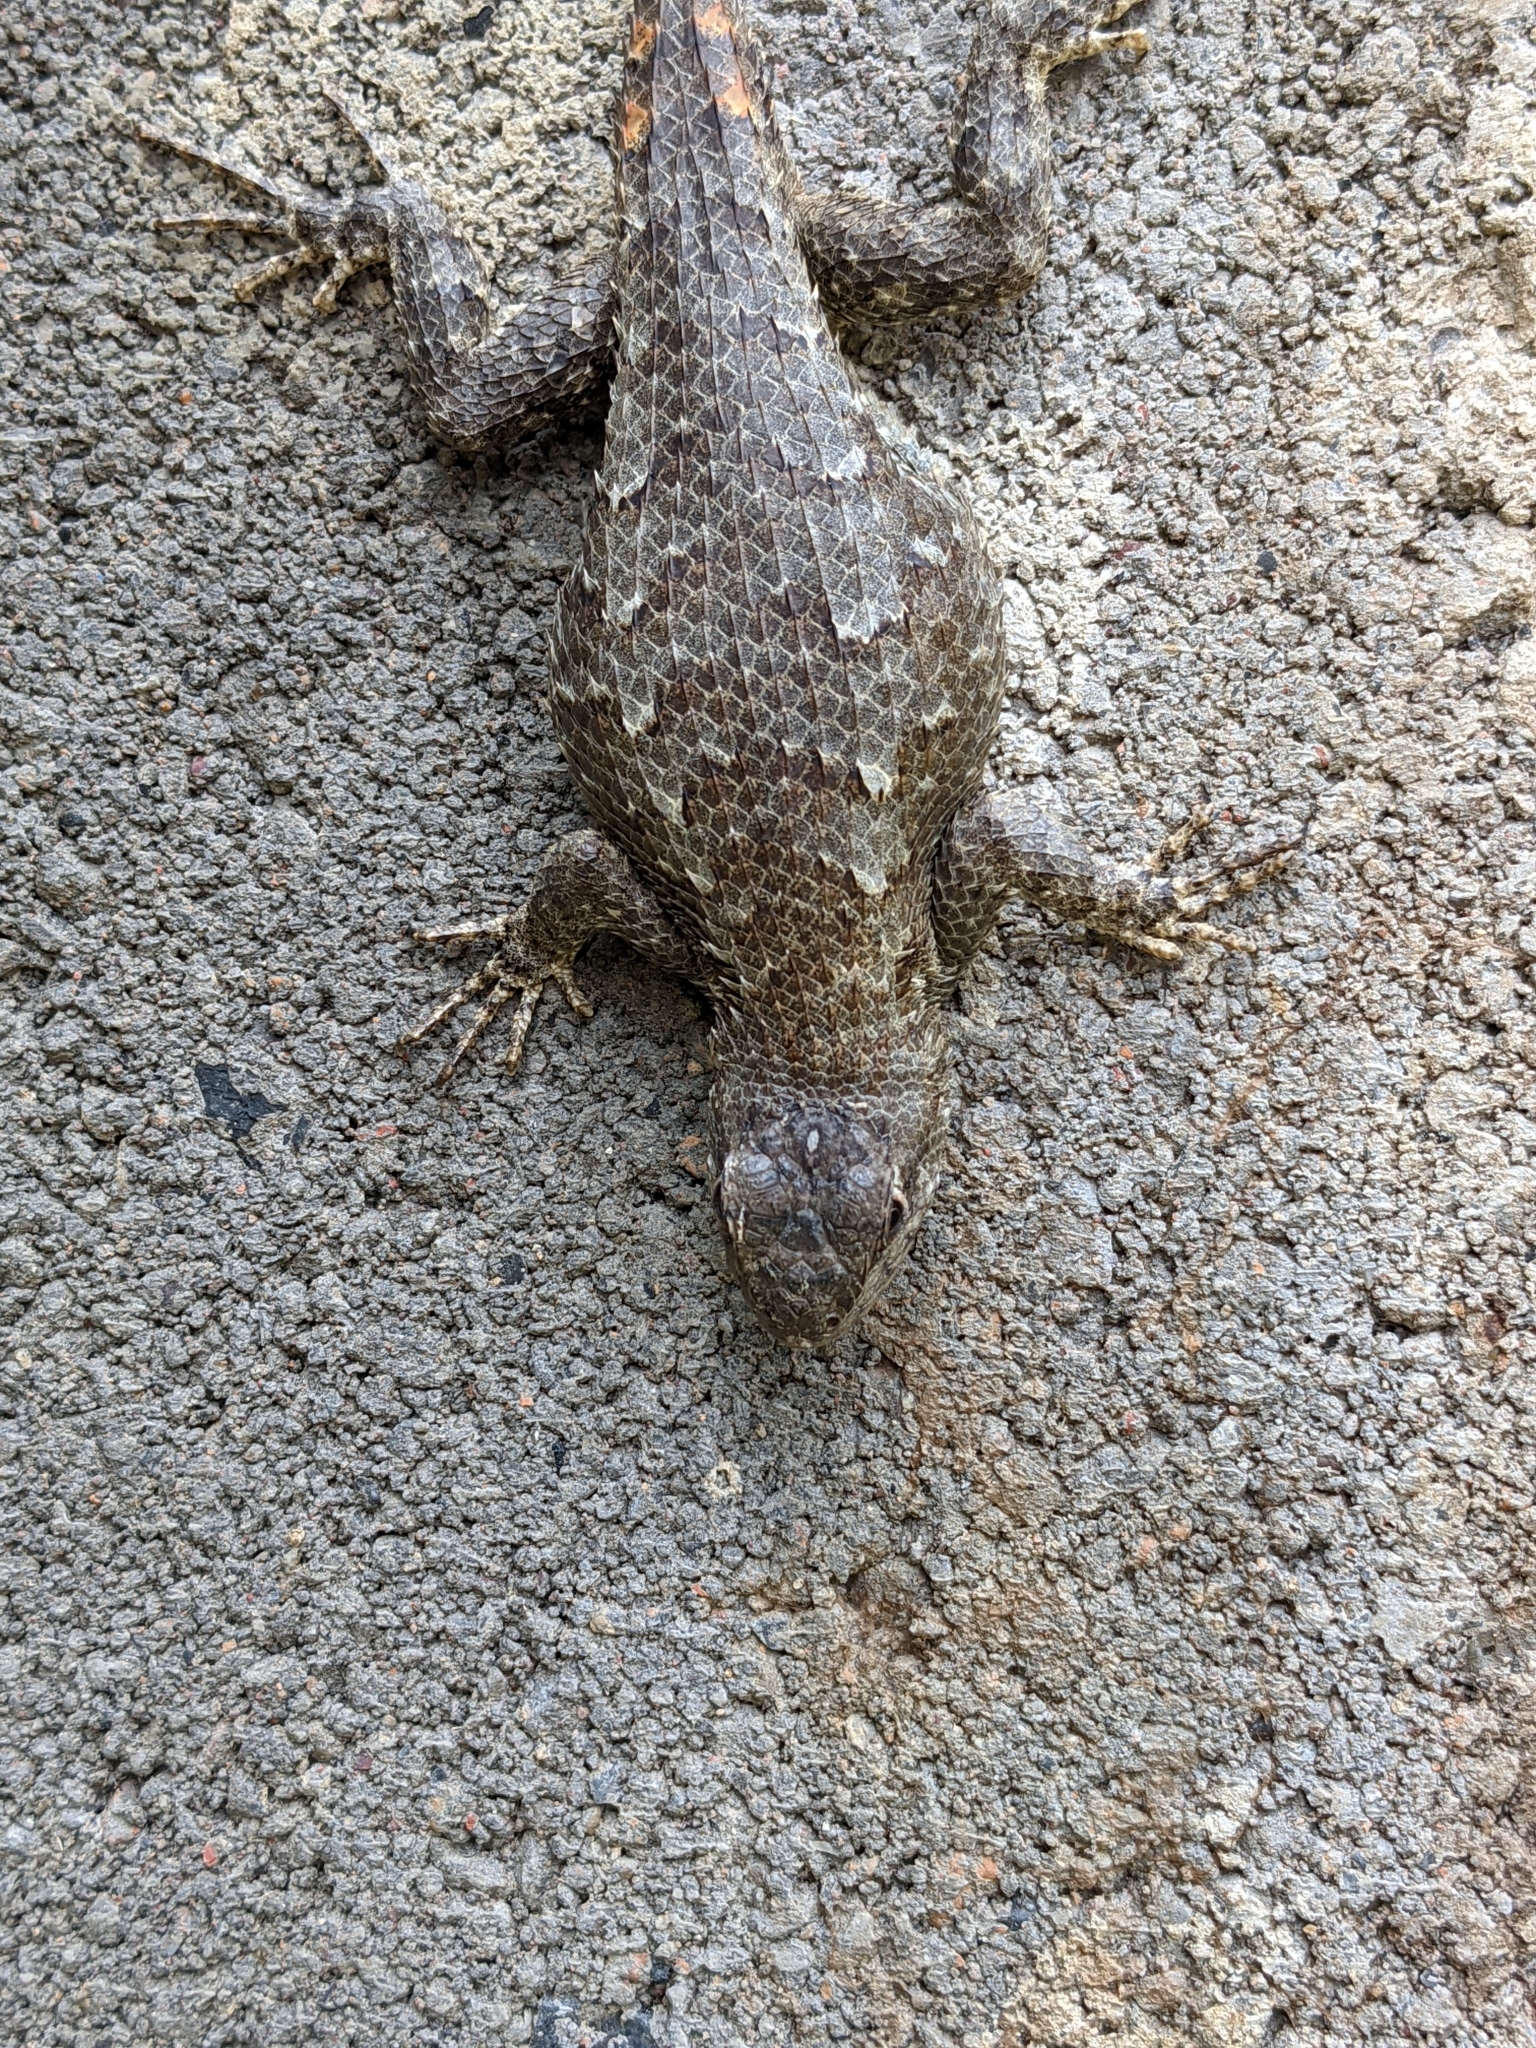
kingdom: Animalia
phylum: Chordata
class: Squamata
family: Phrynosomatidae
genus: Sceloporus
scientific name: Sceloporus undulatus
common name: Eastern fence lizard
